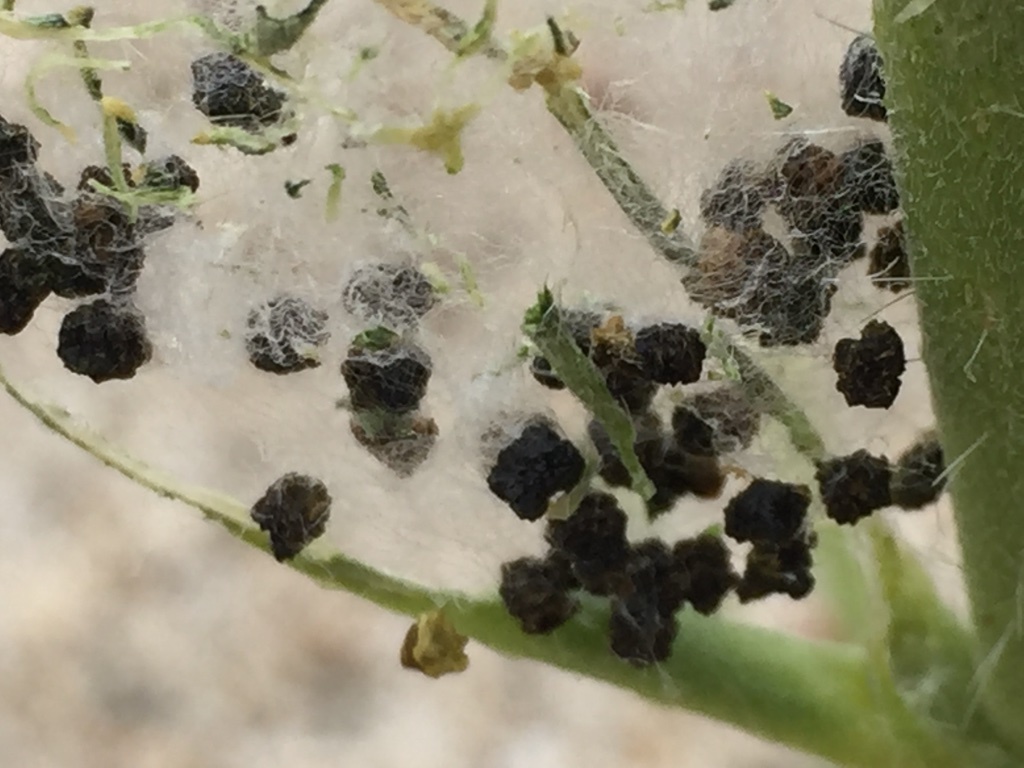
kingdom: Animalia
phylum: Arthropoda
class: Insecta
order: Lepidoptera
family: Nymphalidae
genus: Vanessa
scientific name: Vanessa cardui
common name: Painted lady
